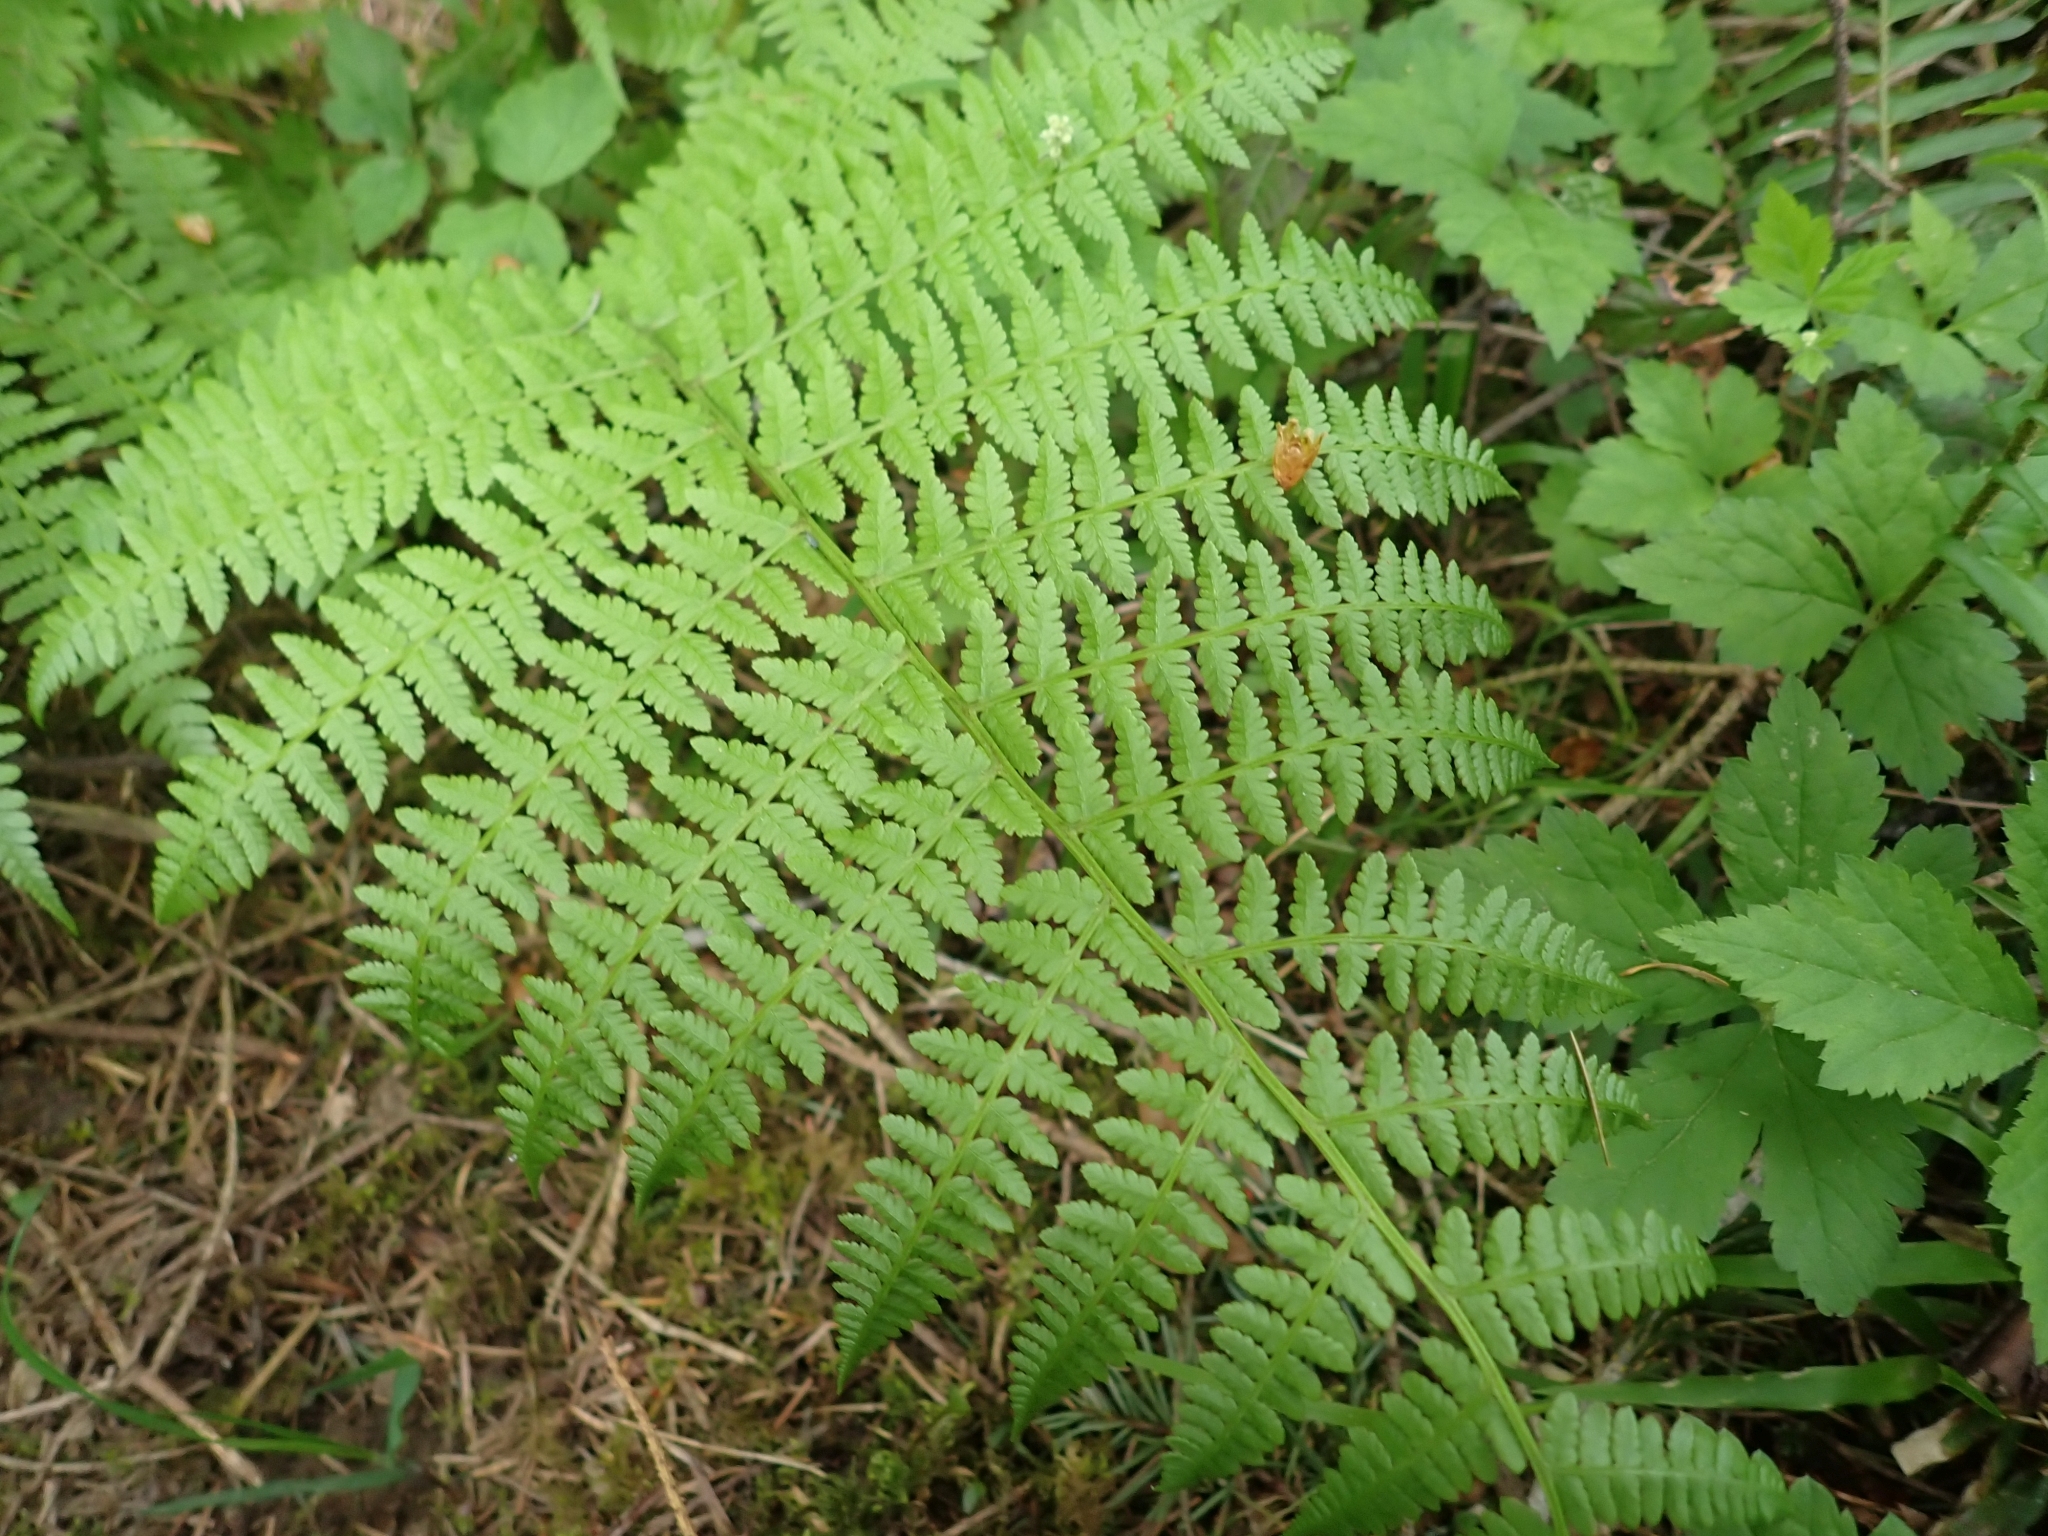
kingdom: Plantae
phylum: Tracheophyta
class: Polypodiopsida
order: Polypodiales
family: Athyriaceae
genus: Athyrium
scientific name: Athyrium filix-femina
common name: Lady fern
